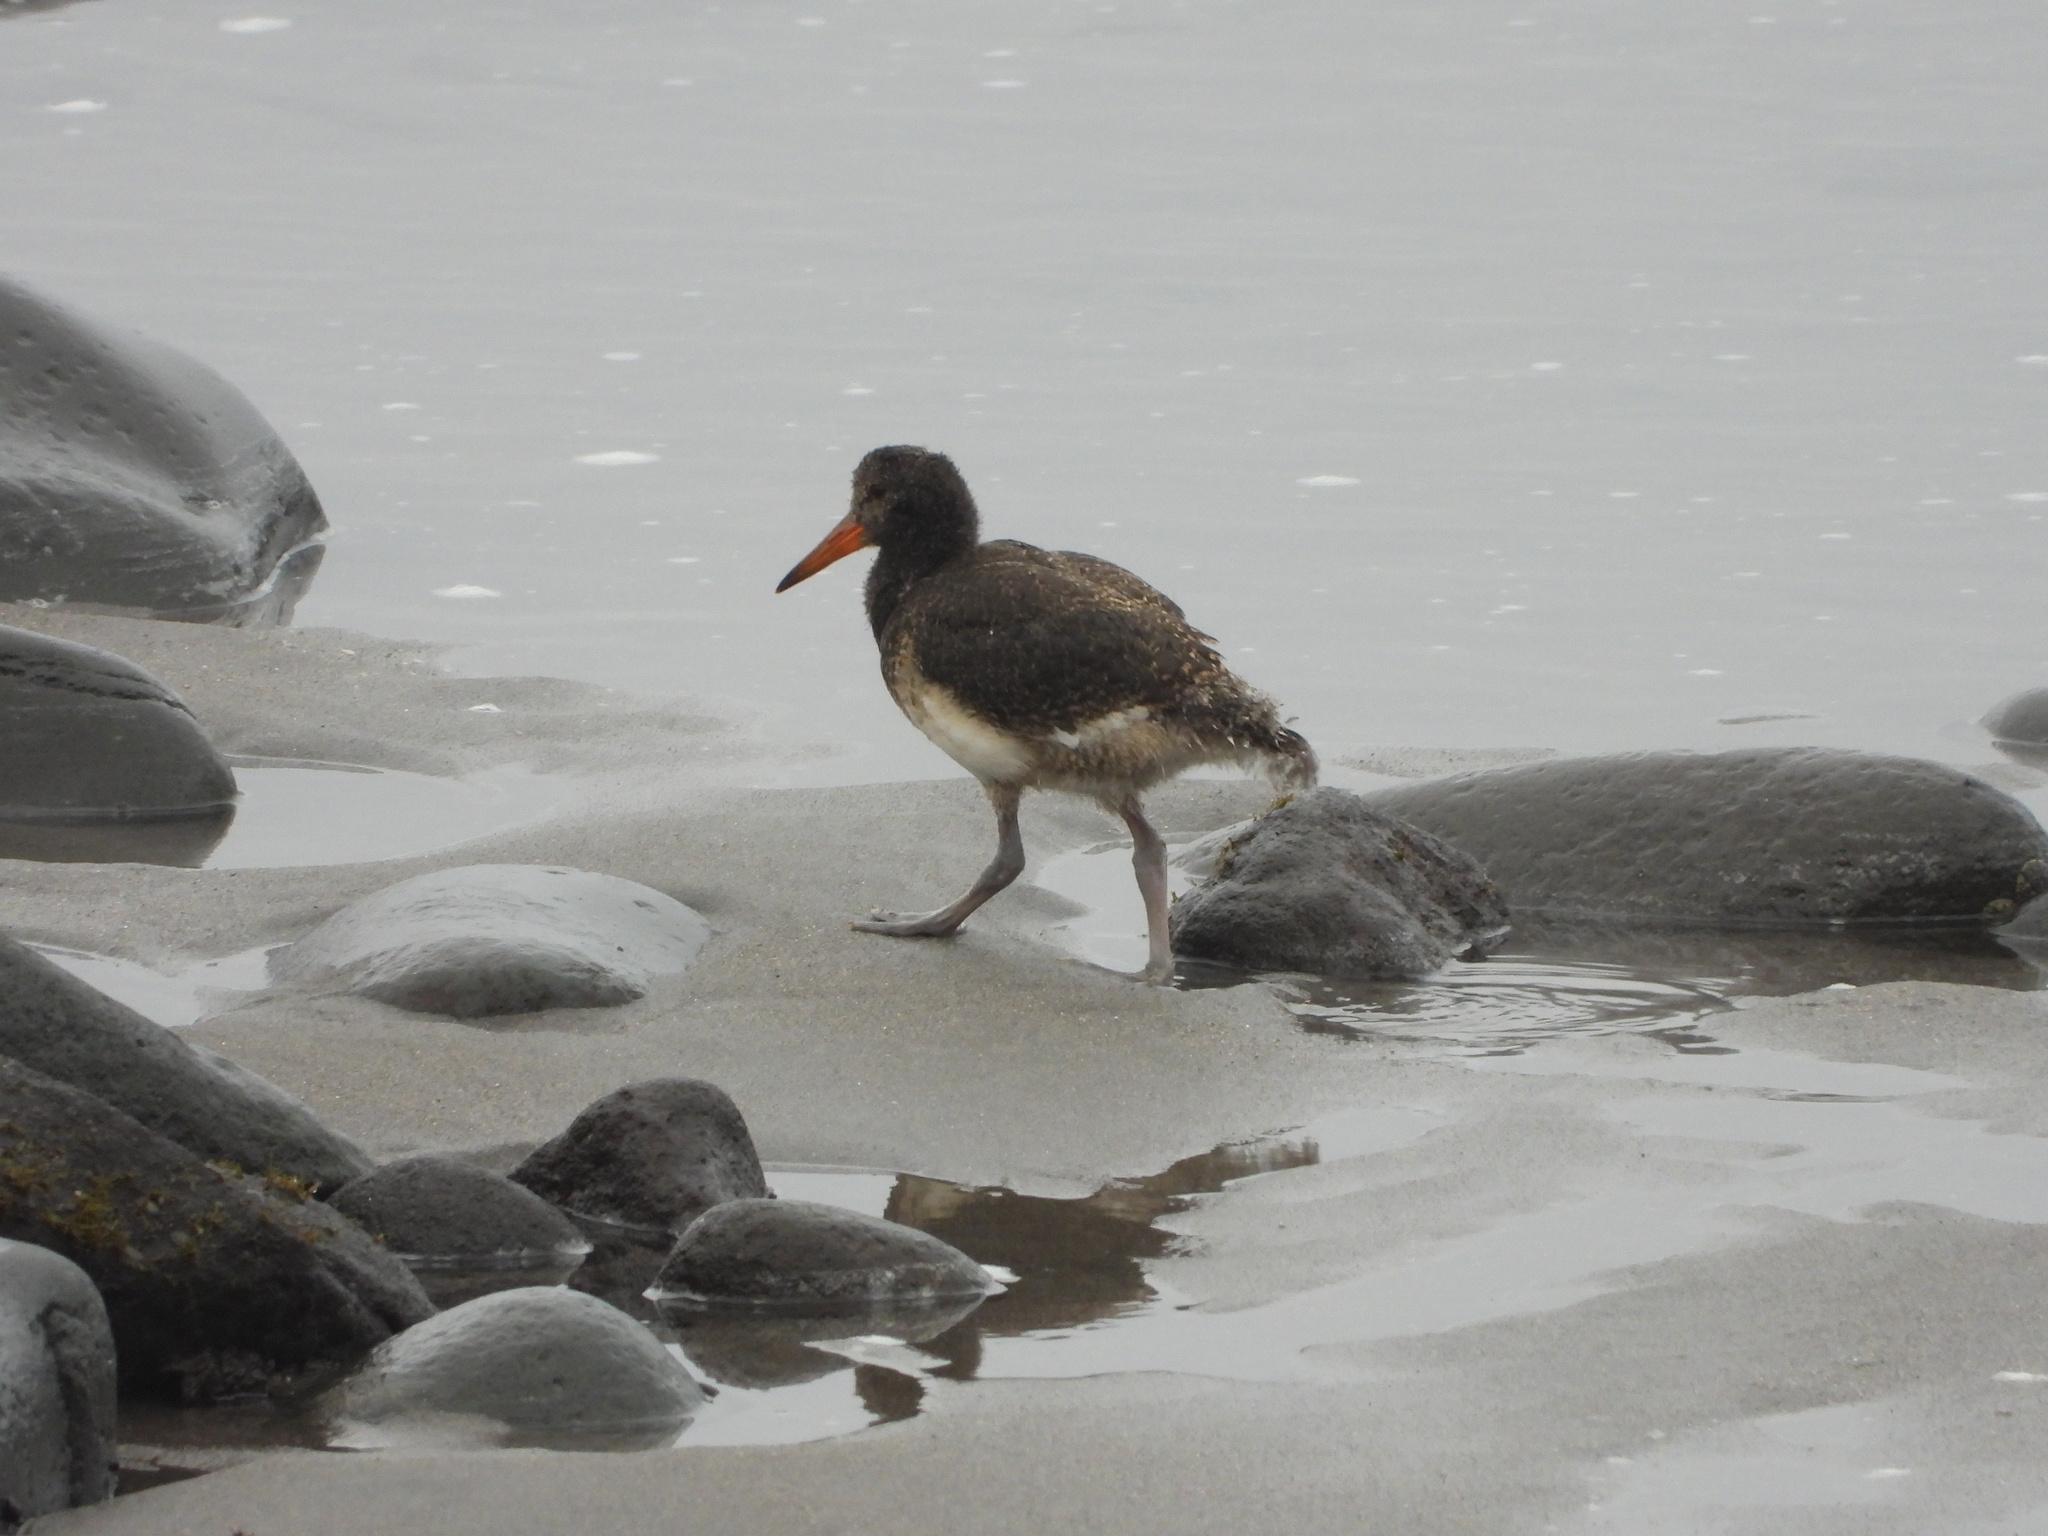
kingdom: Animalia
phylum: Chordata
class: Aves
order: Charadriiformes
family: Haematopodidae
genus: Haematopus
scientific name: Haematopus unicolor
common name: Variable oystercatcher
